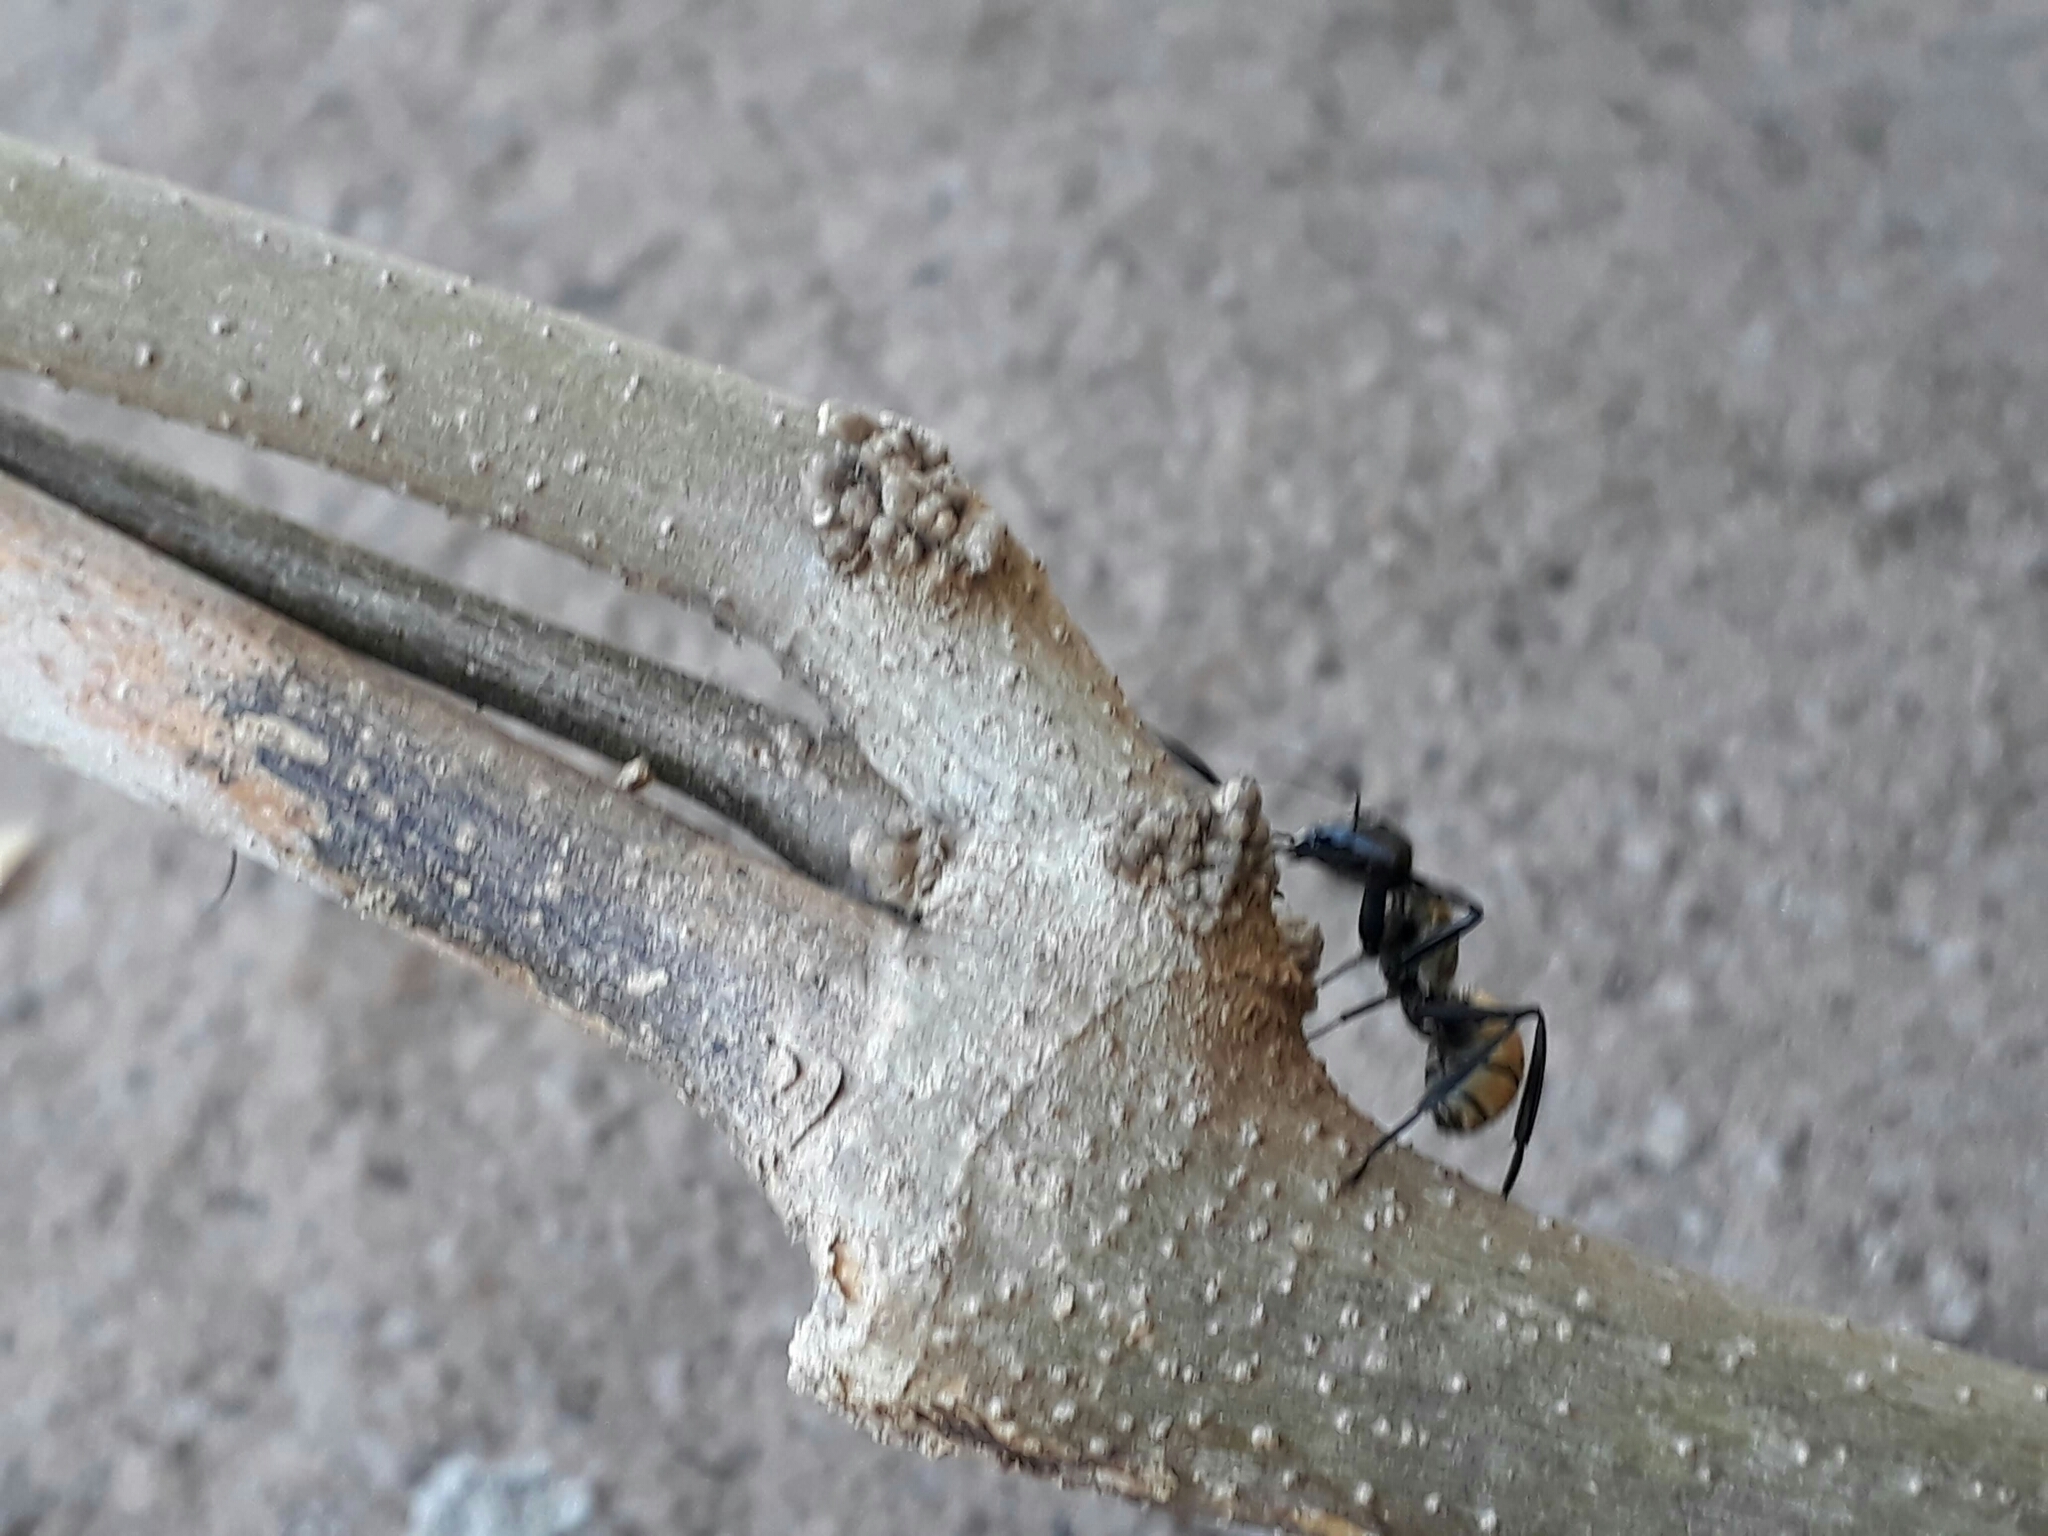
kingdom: Animalia
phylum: Arthropoda
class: Insecta
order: Hymenoptera
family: Formicidae
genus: Camponotus
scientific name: Camponotus sericeiventris
